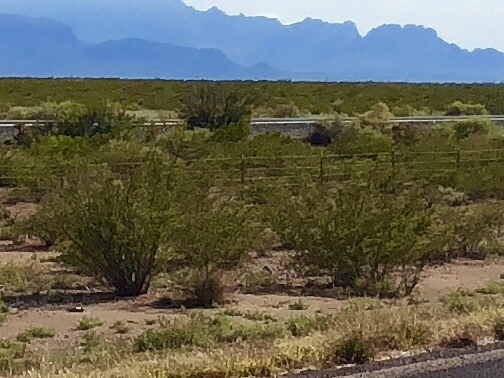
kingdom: Plantae
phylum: Tracheophyta
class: Magnoliopsida
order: Zygophyllales
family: Zygophyllaceae
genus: Larrea
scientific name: Larrea tridentata
